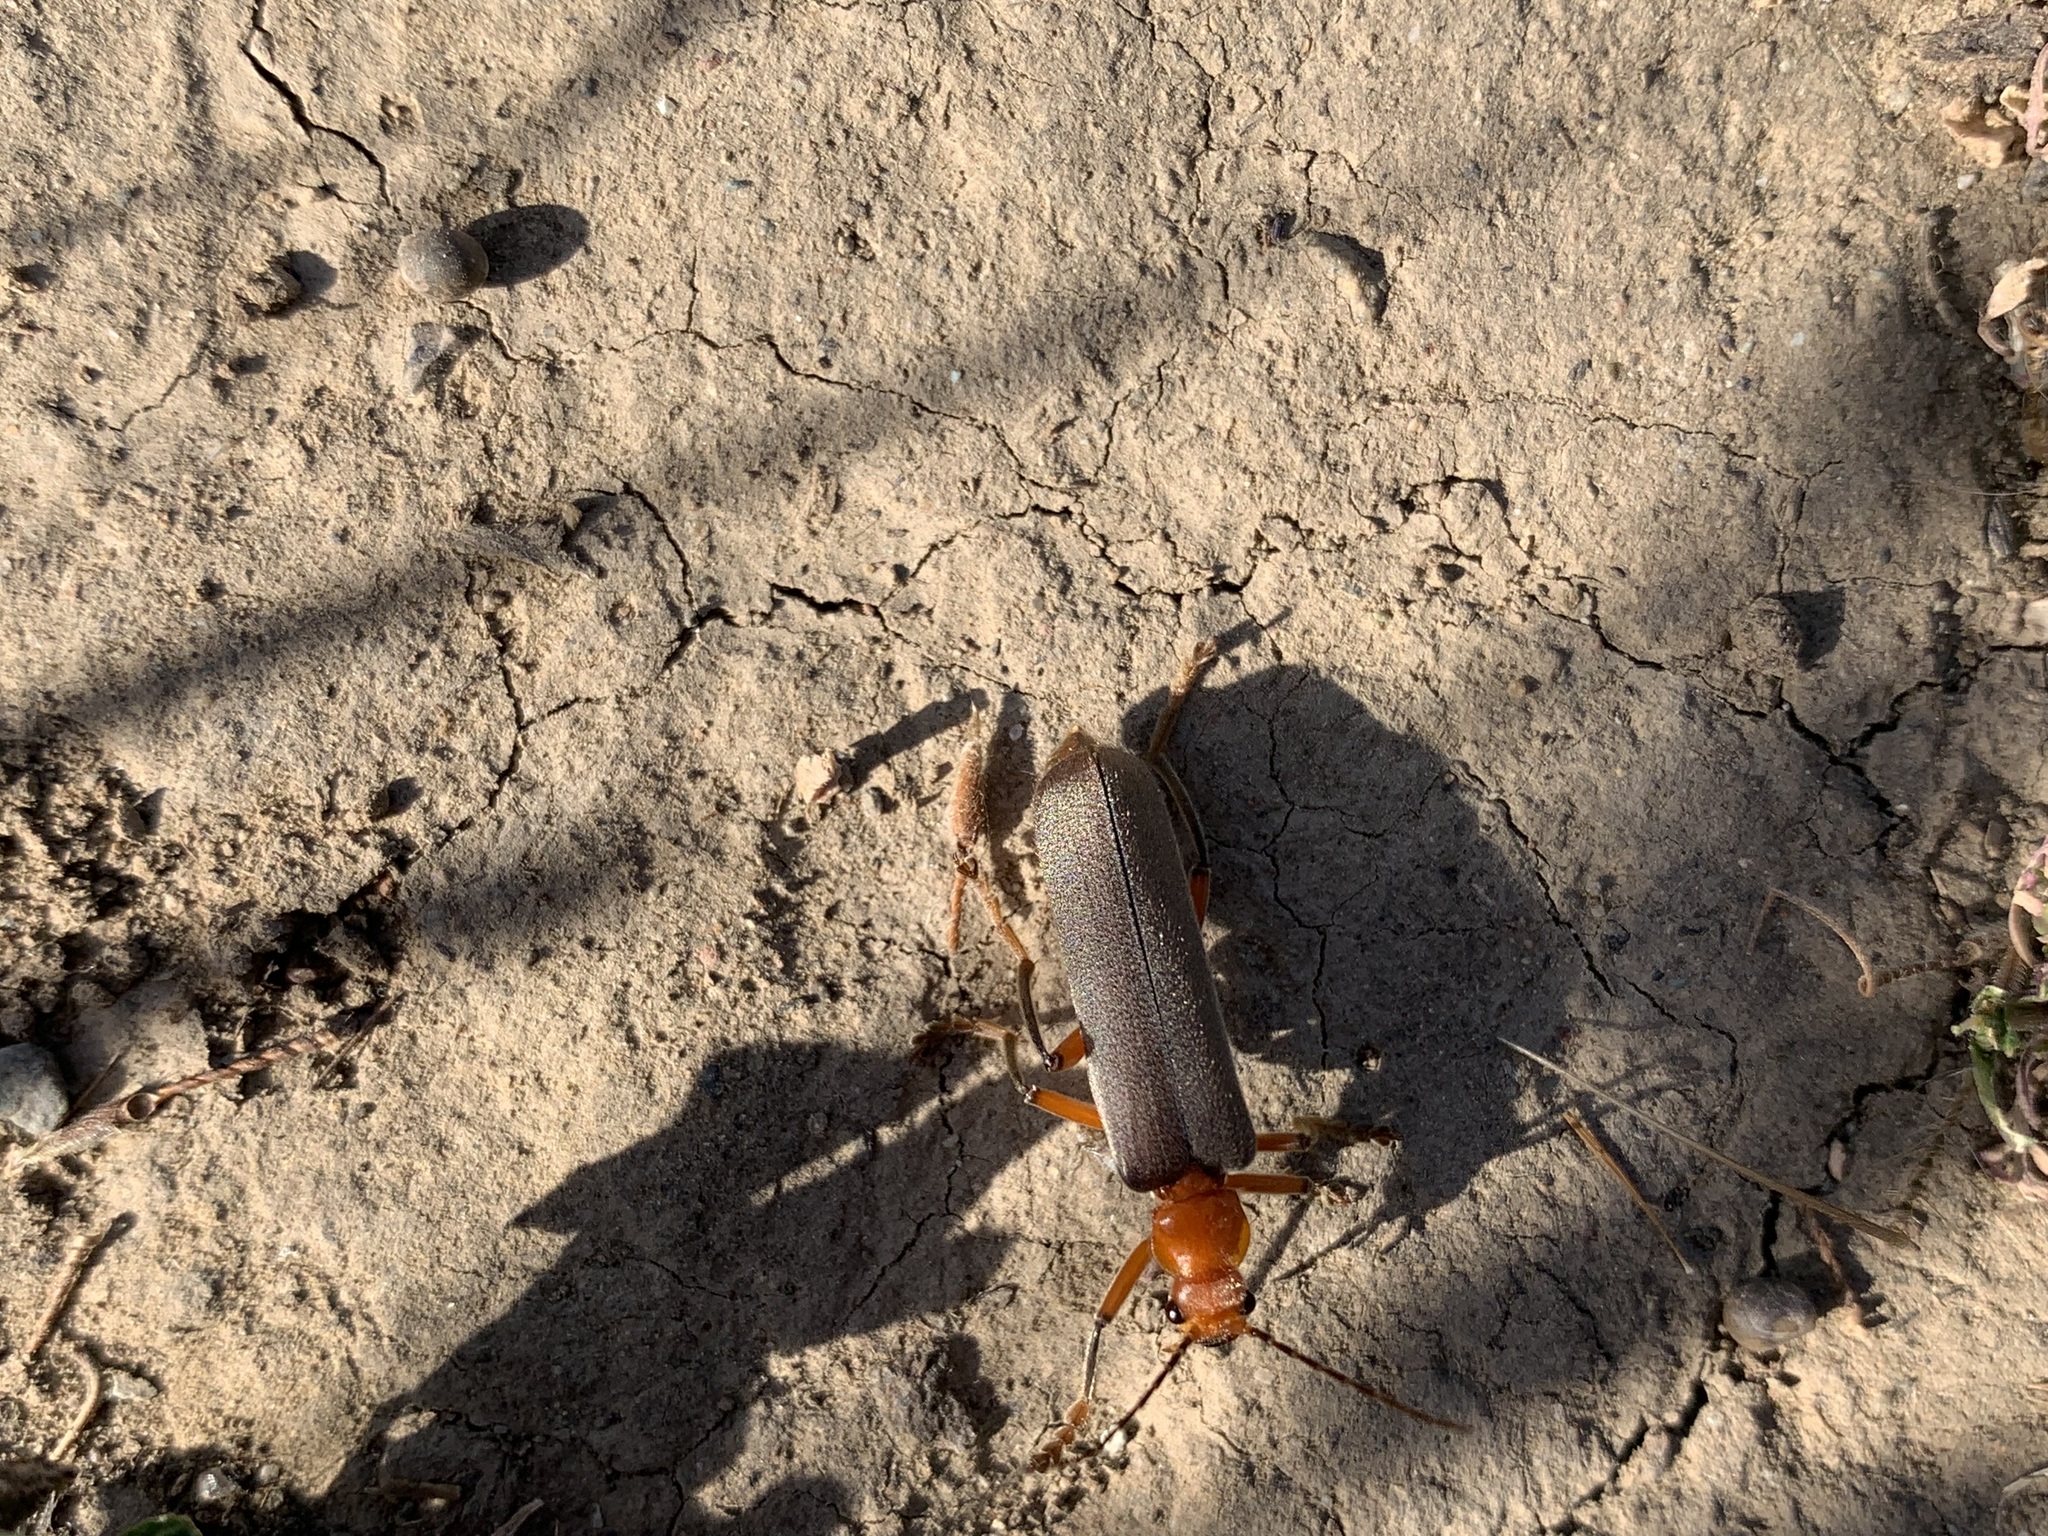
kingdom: Animalia
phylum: Arthropoda
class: Insecta
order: Coleoptera
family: Cantharidae
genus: Pacificanthia
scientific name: Pacificanthia consors
